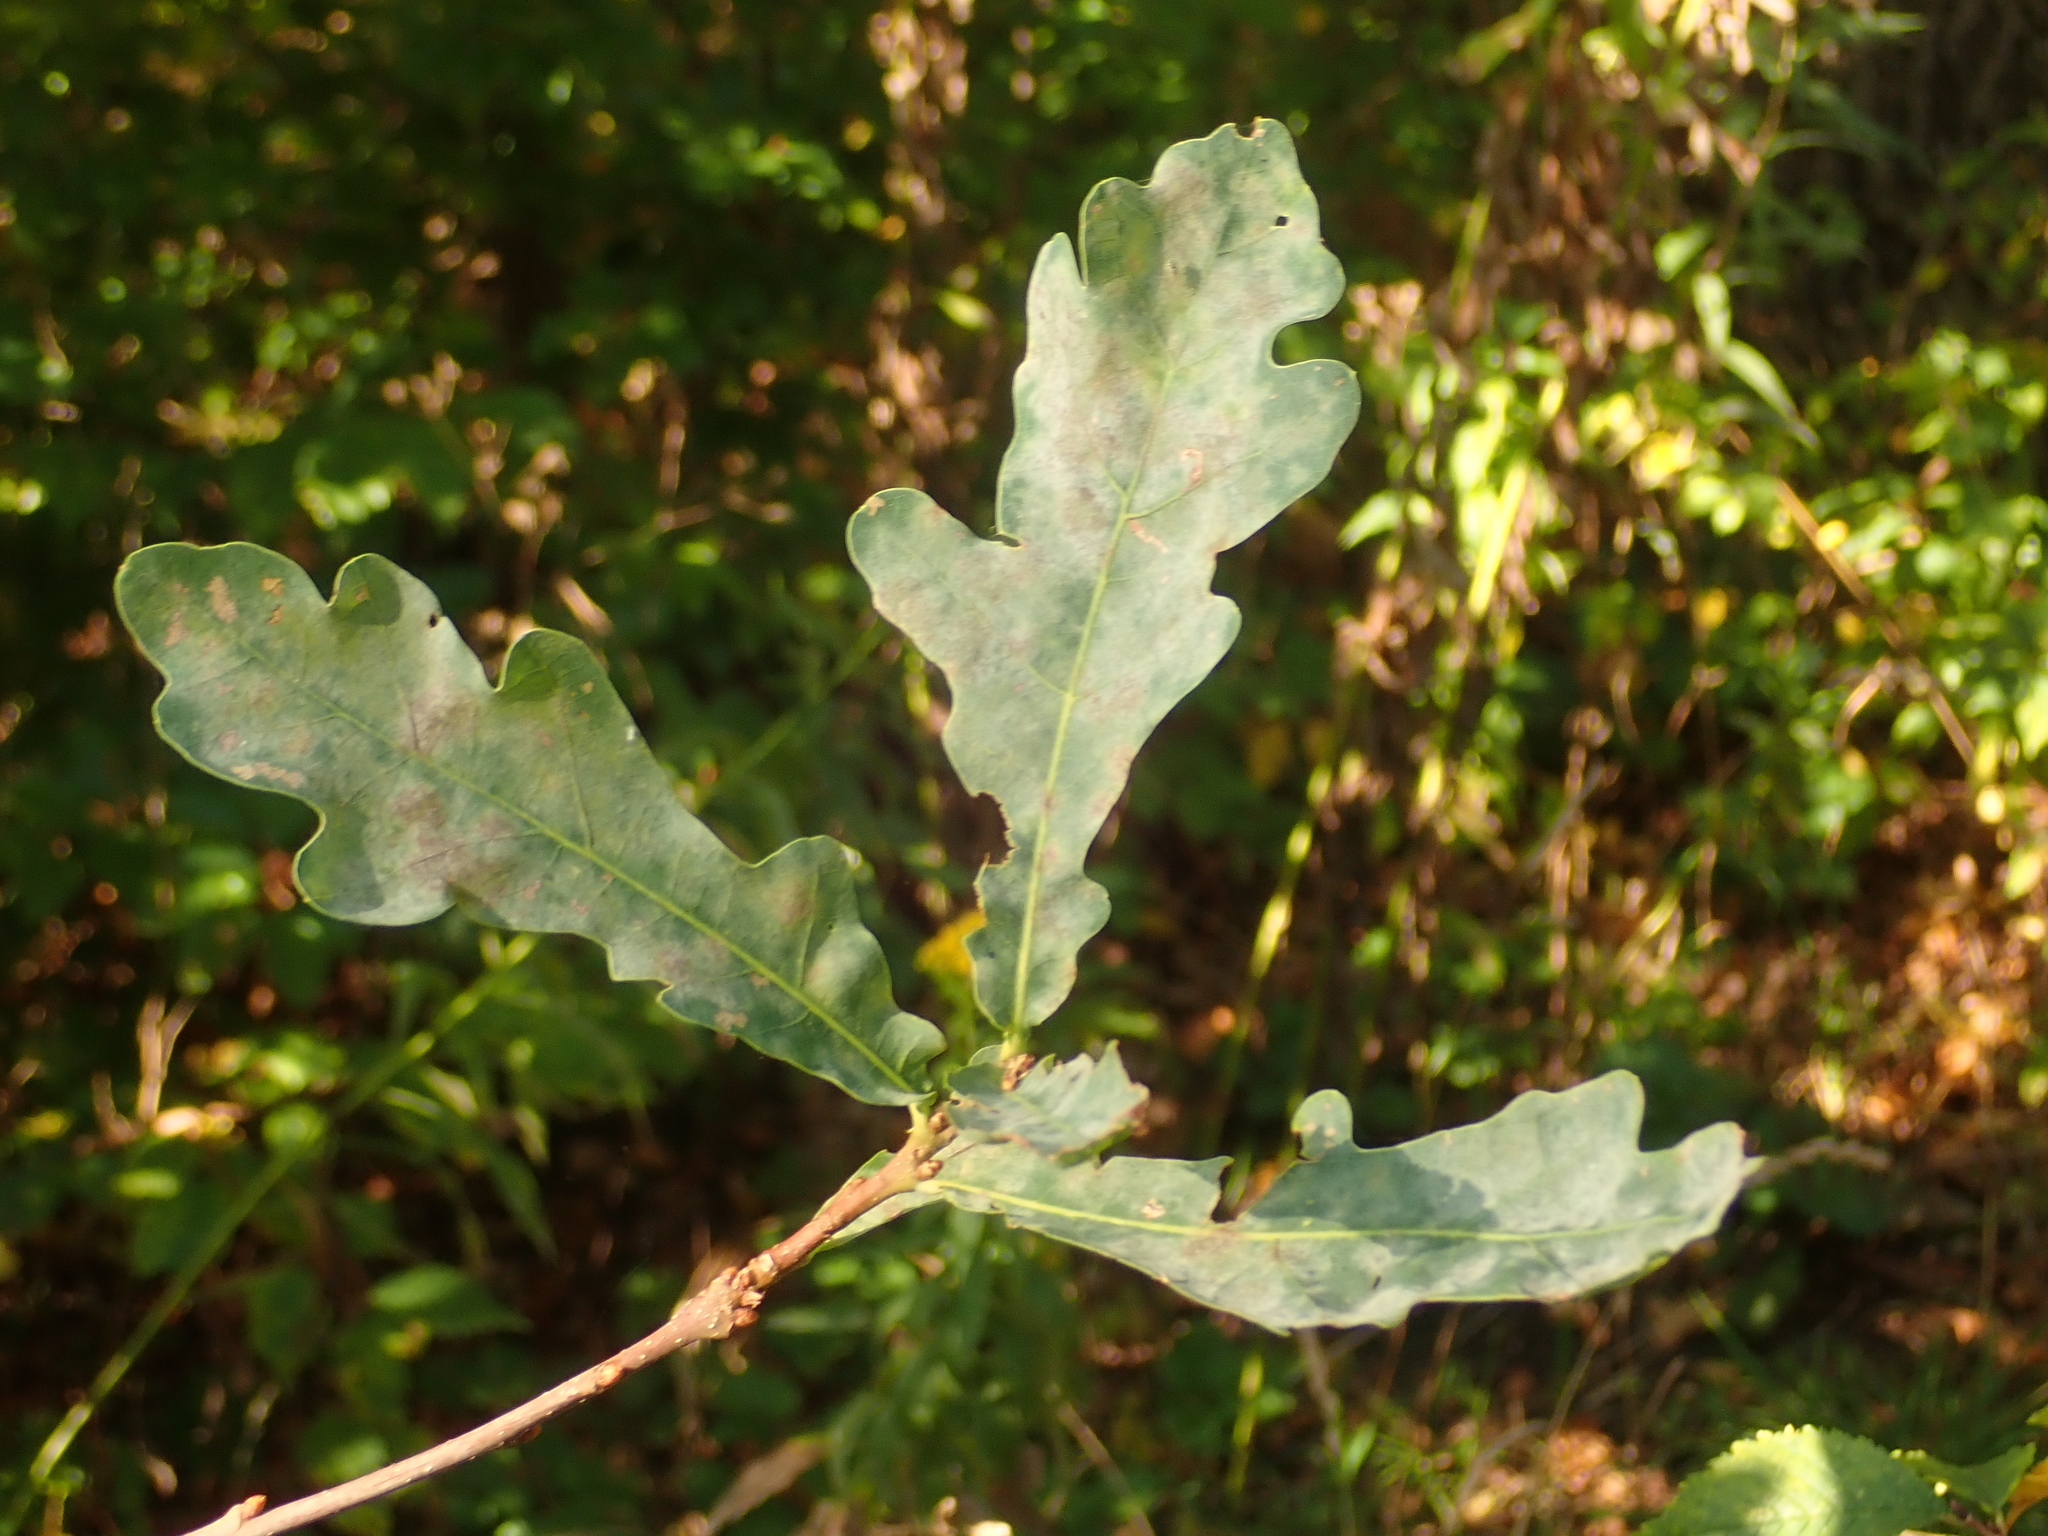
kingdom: Fungi
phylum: Ascomycota
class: Leotiomycetes
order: Helotiales
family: Erysiphaceae
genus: Erysiphe
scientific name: Erysiphe
